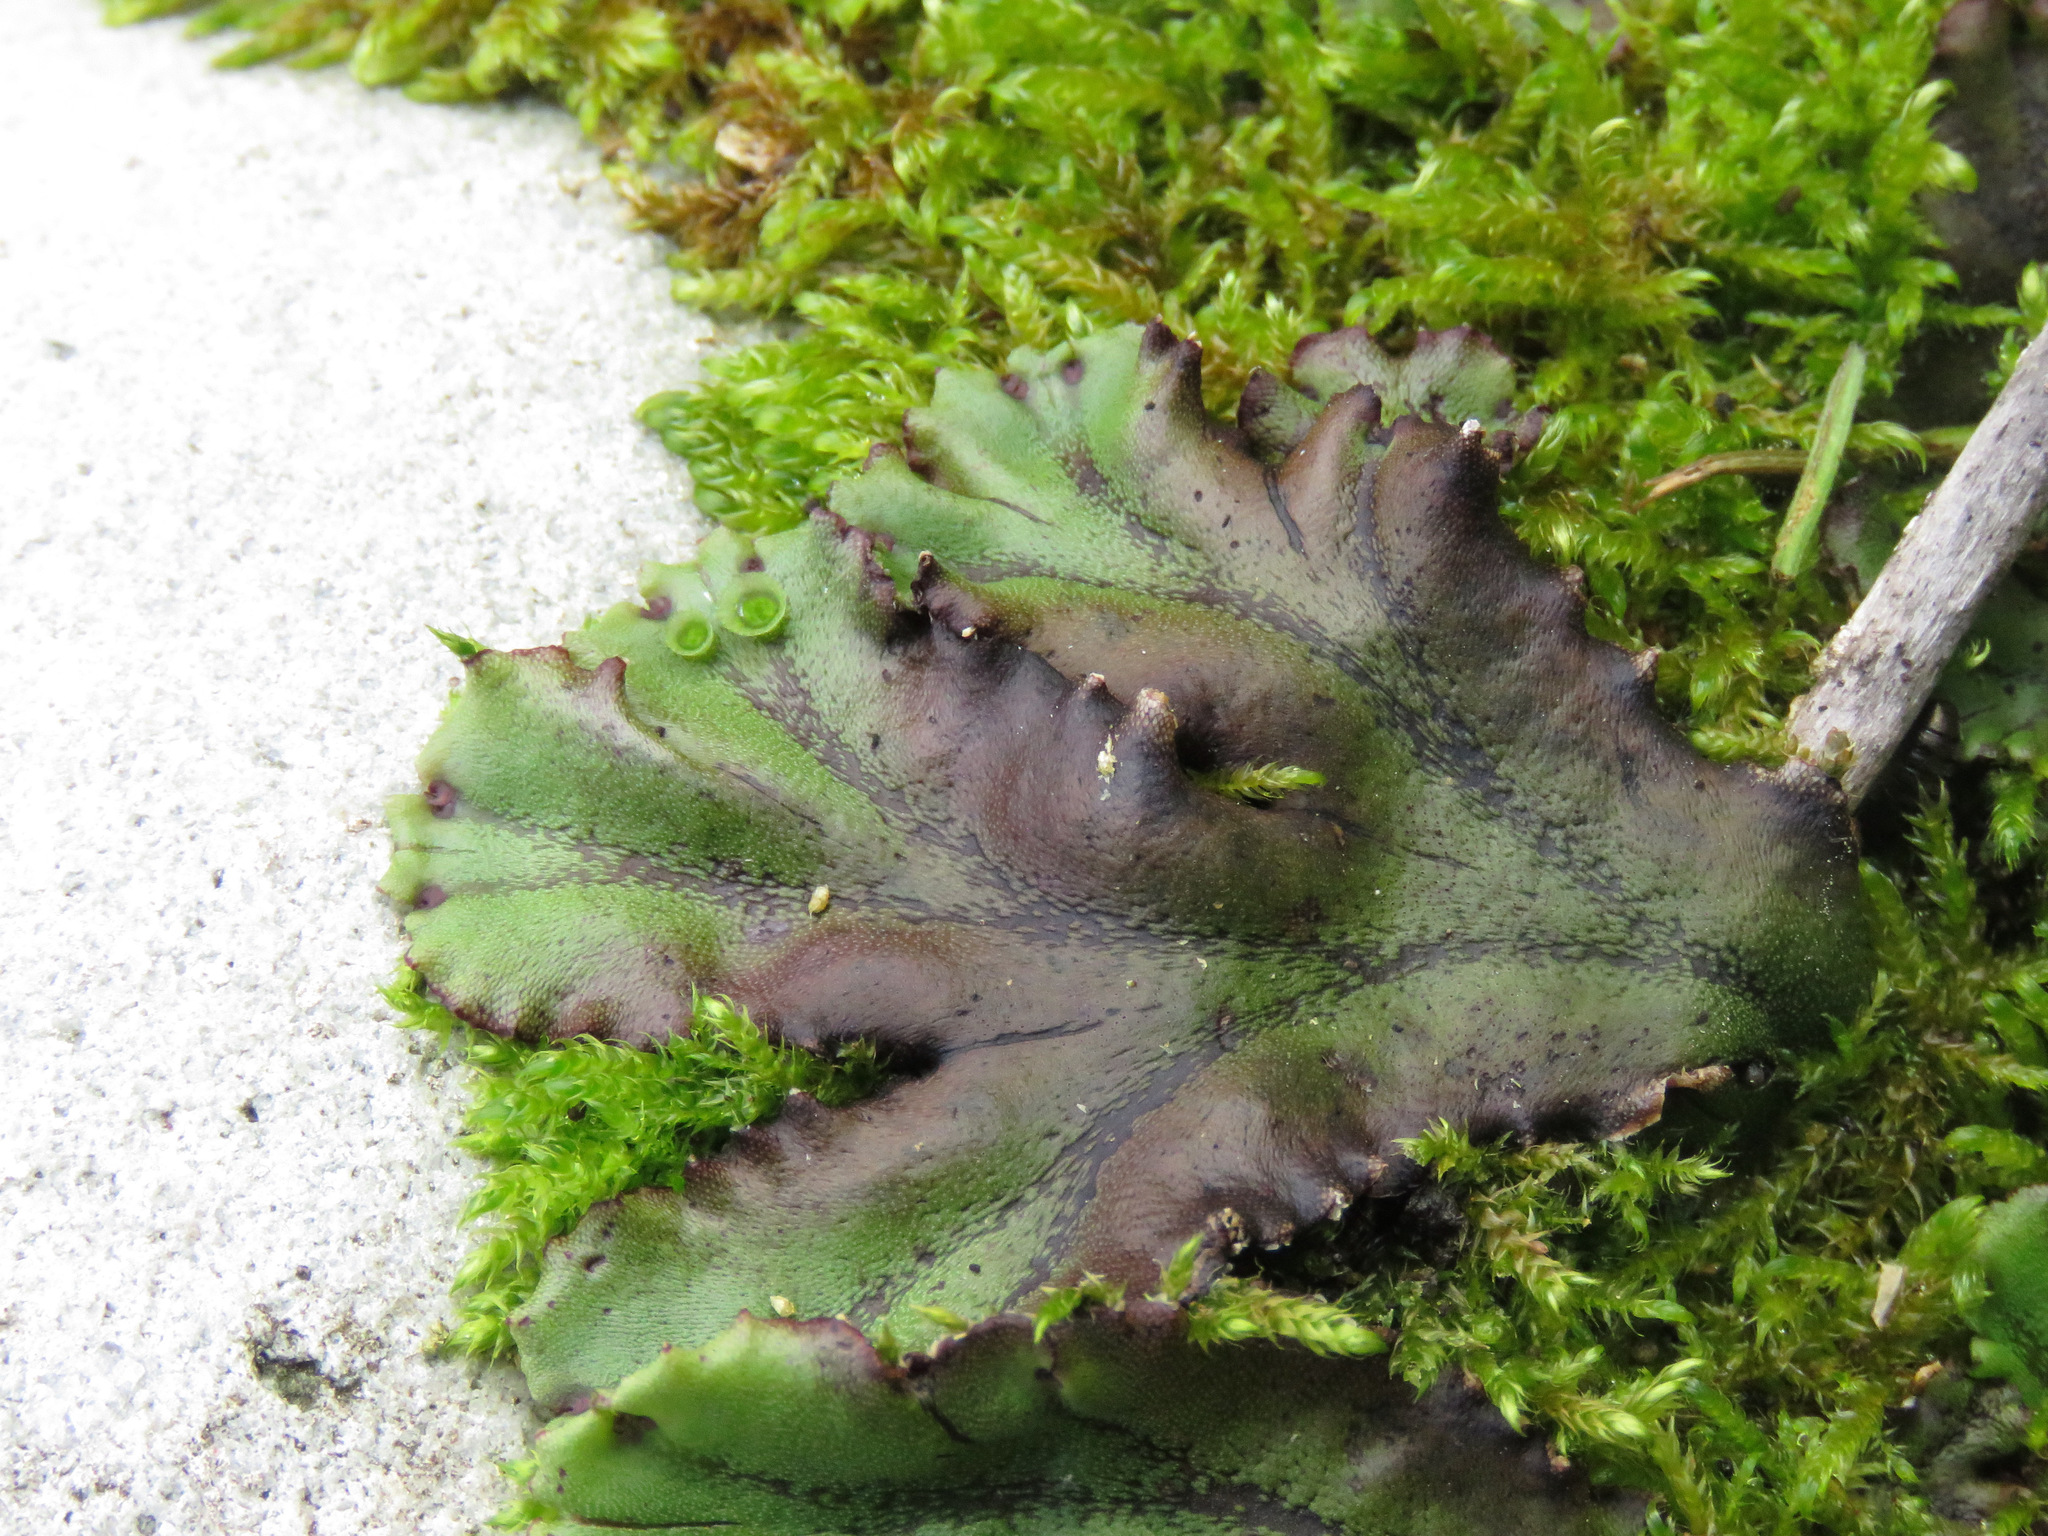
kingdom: Plantae
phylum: Marchantiophyta
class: Marchantiopsida
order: Marchantiales
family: Marchantiaceae
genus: Marchantia
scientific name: Marchantia polymorpha
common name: Common liverwort
